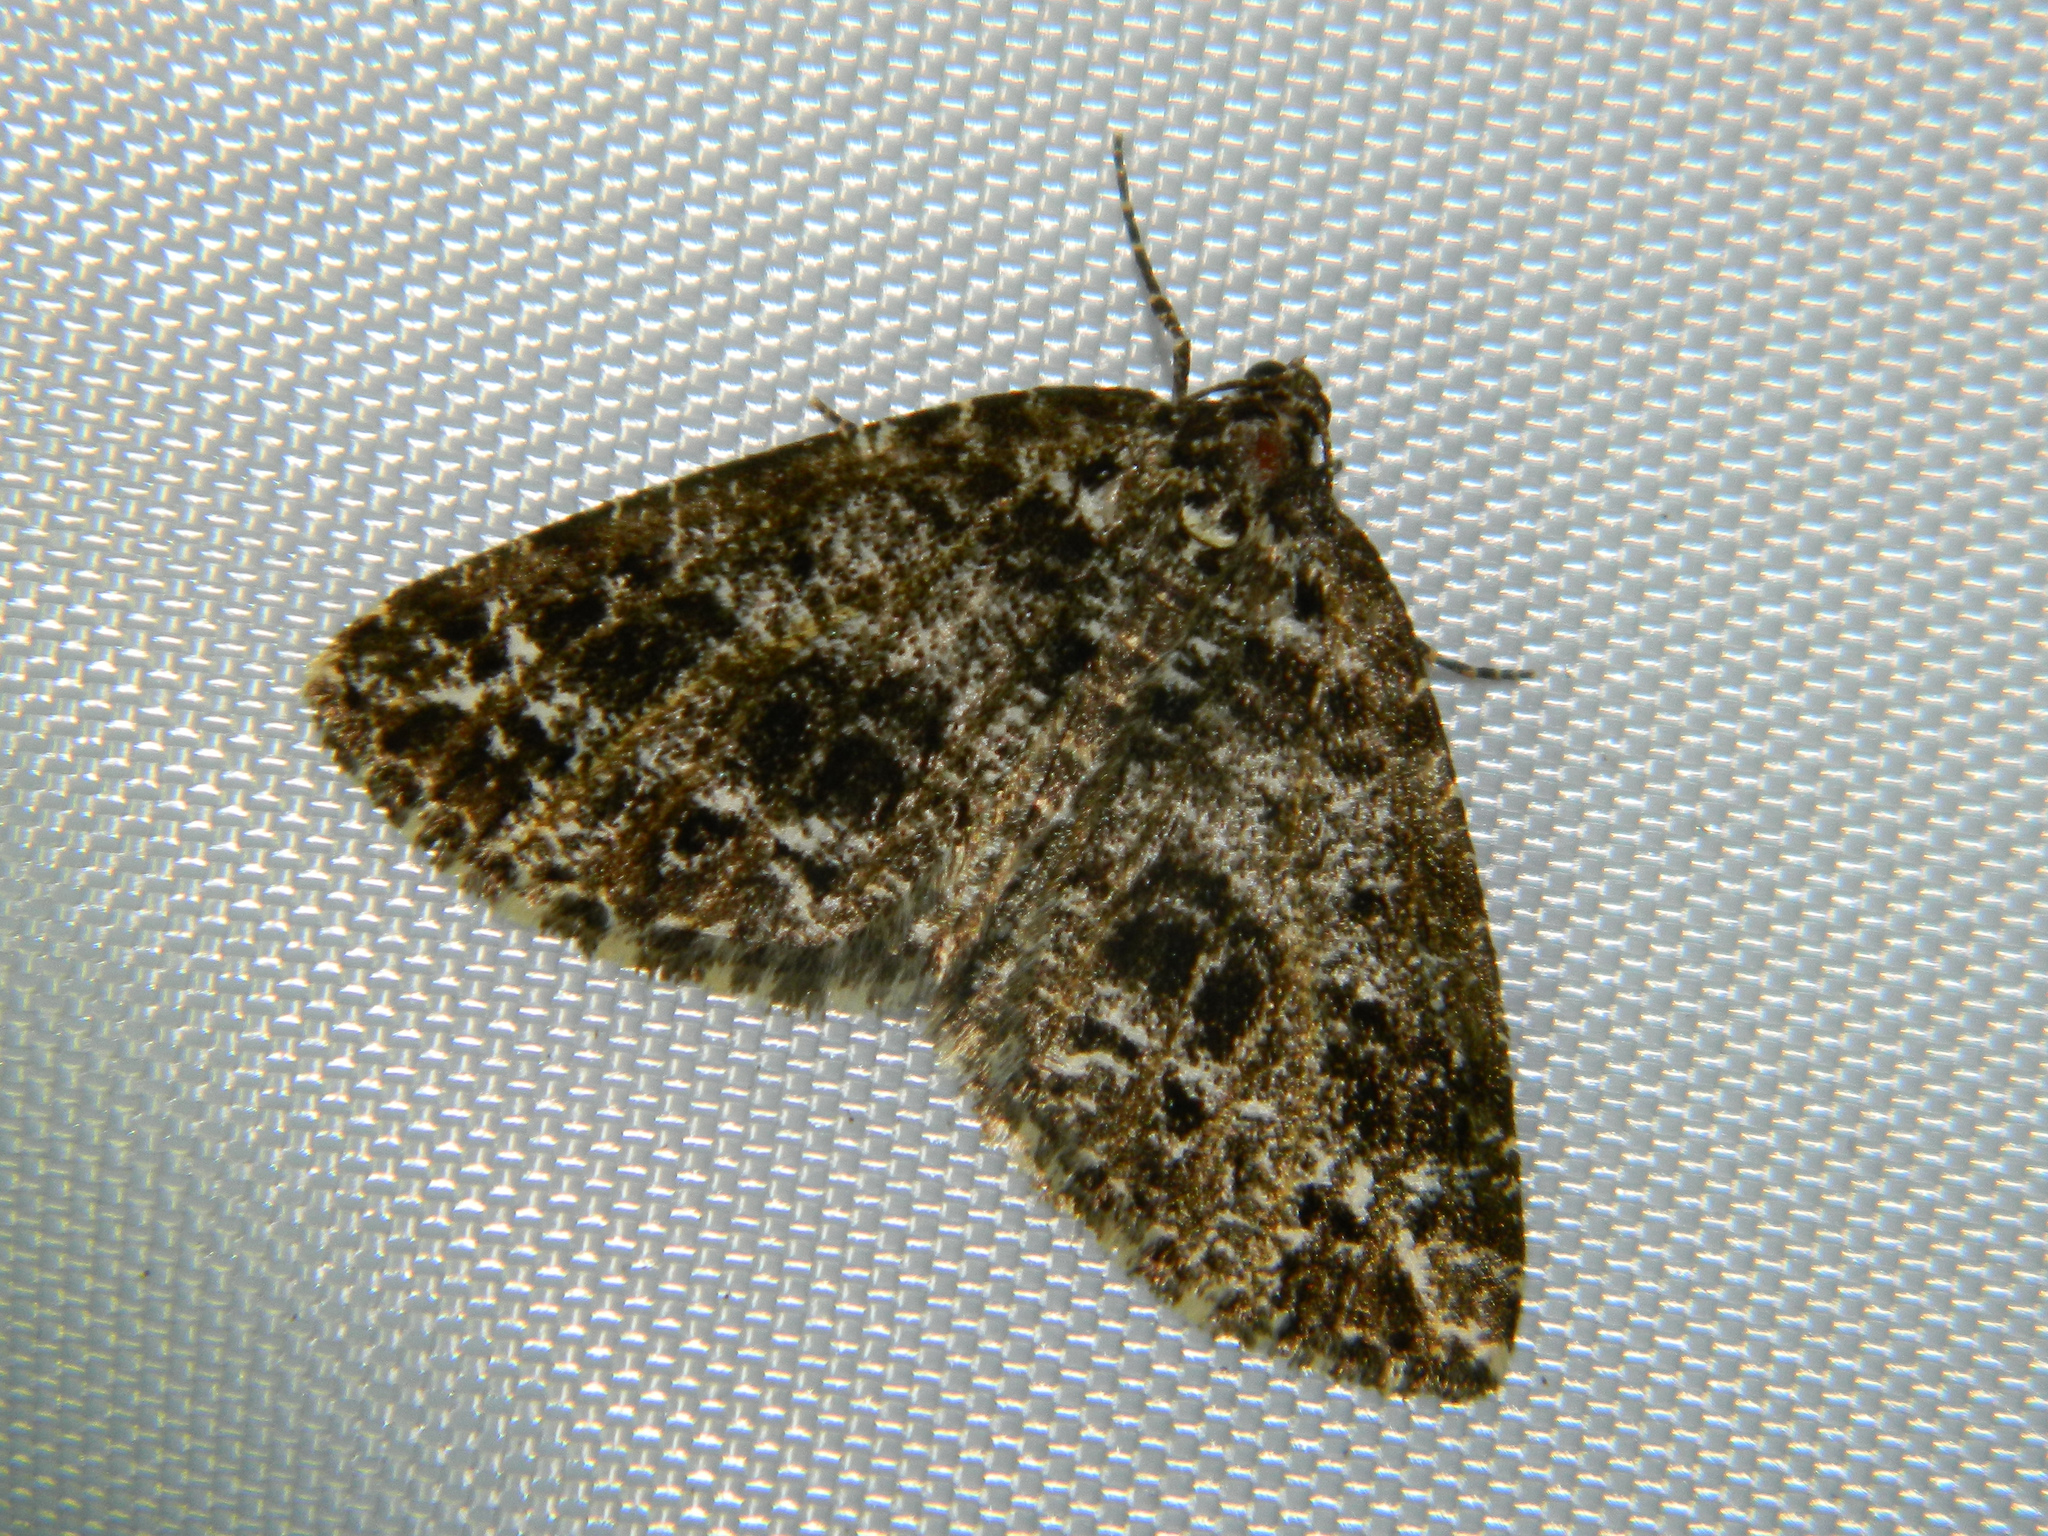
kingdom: Animalia
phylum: Arthropoda
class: Insecta
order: Lepidoptera
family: Geometridae
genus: Orthofidonia
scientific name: Orthofidonia tinctaria
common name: Marbled wave
